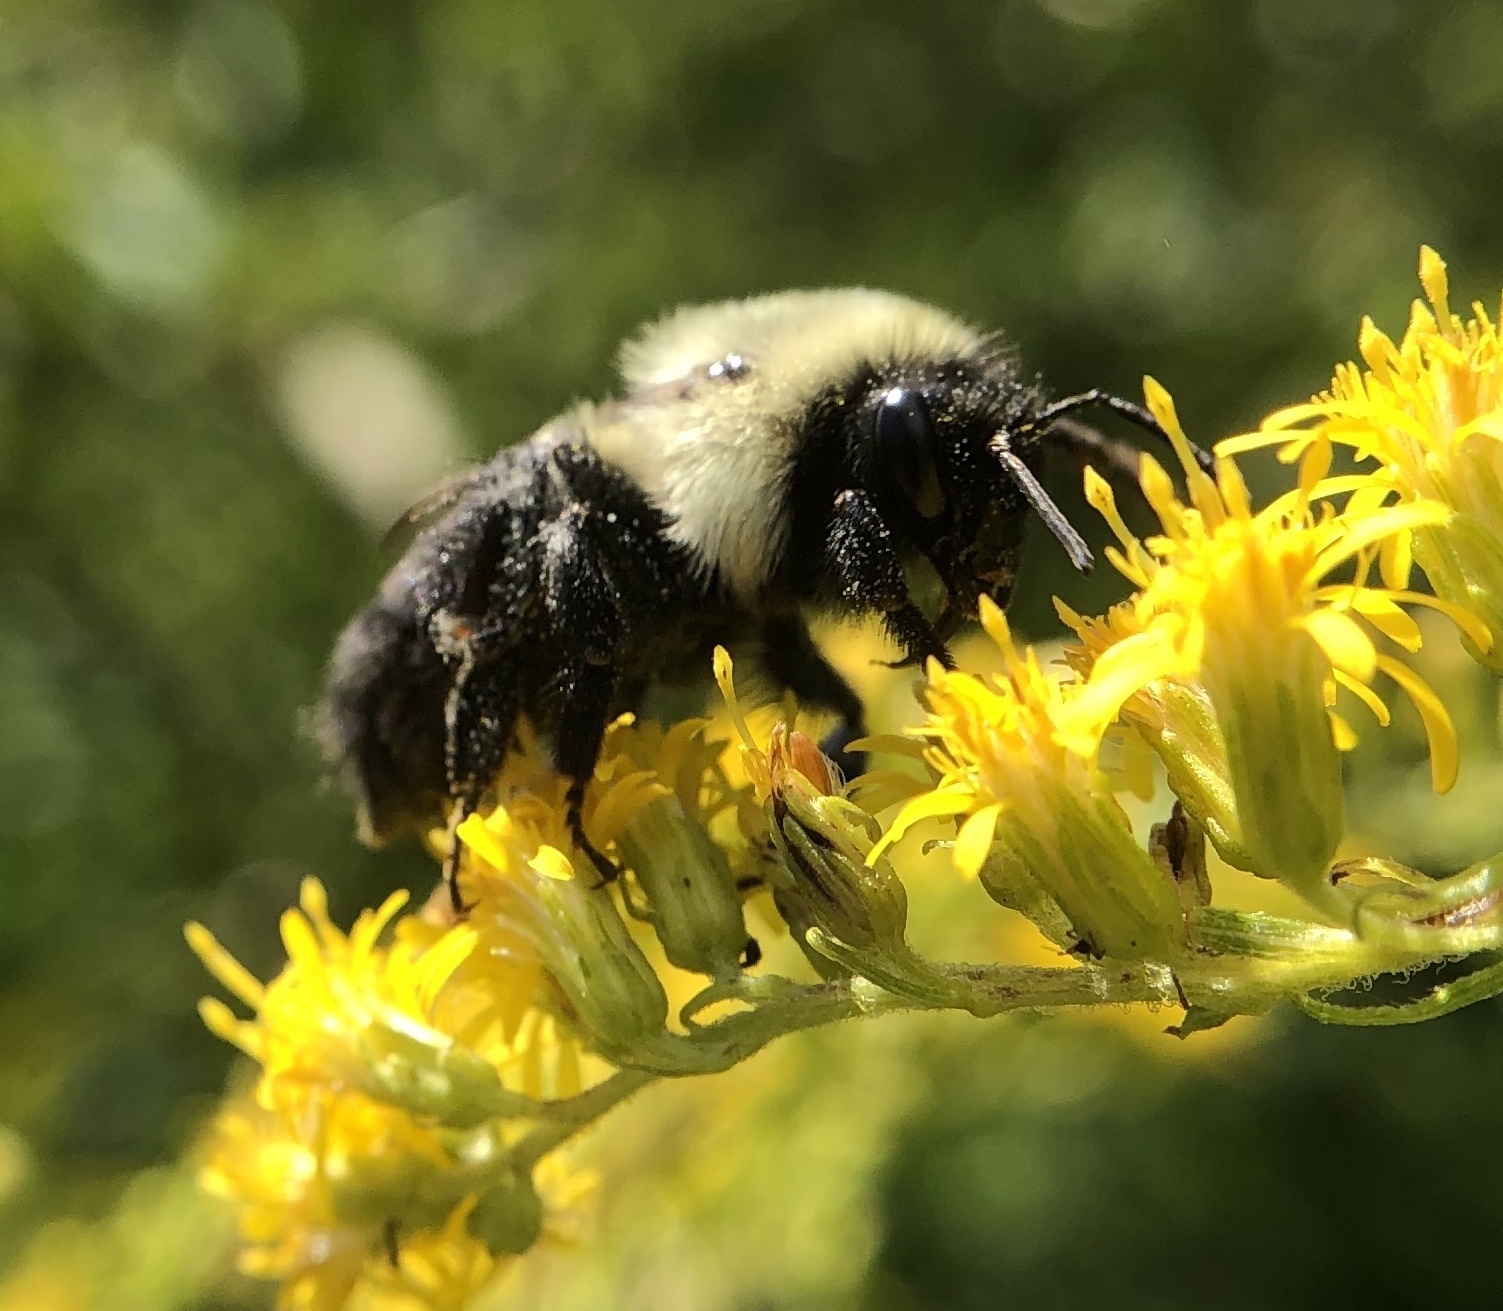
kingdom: Animalia
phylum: Arthropoda
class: Insecta
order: Hymenoptera
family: Apidae
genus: Bombus
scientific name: Bombus impatiens
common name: Common eastern bumble bee
